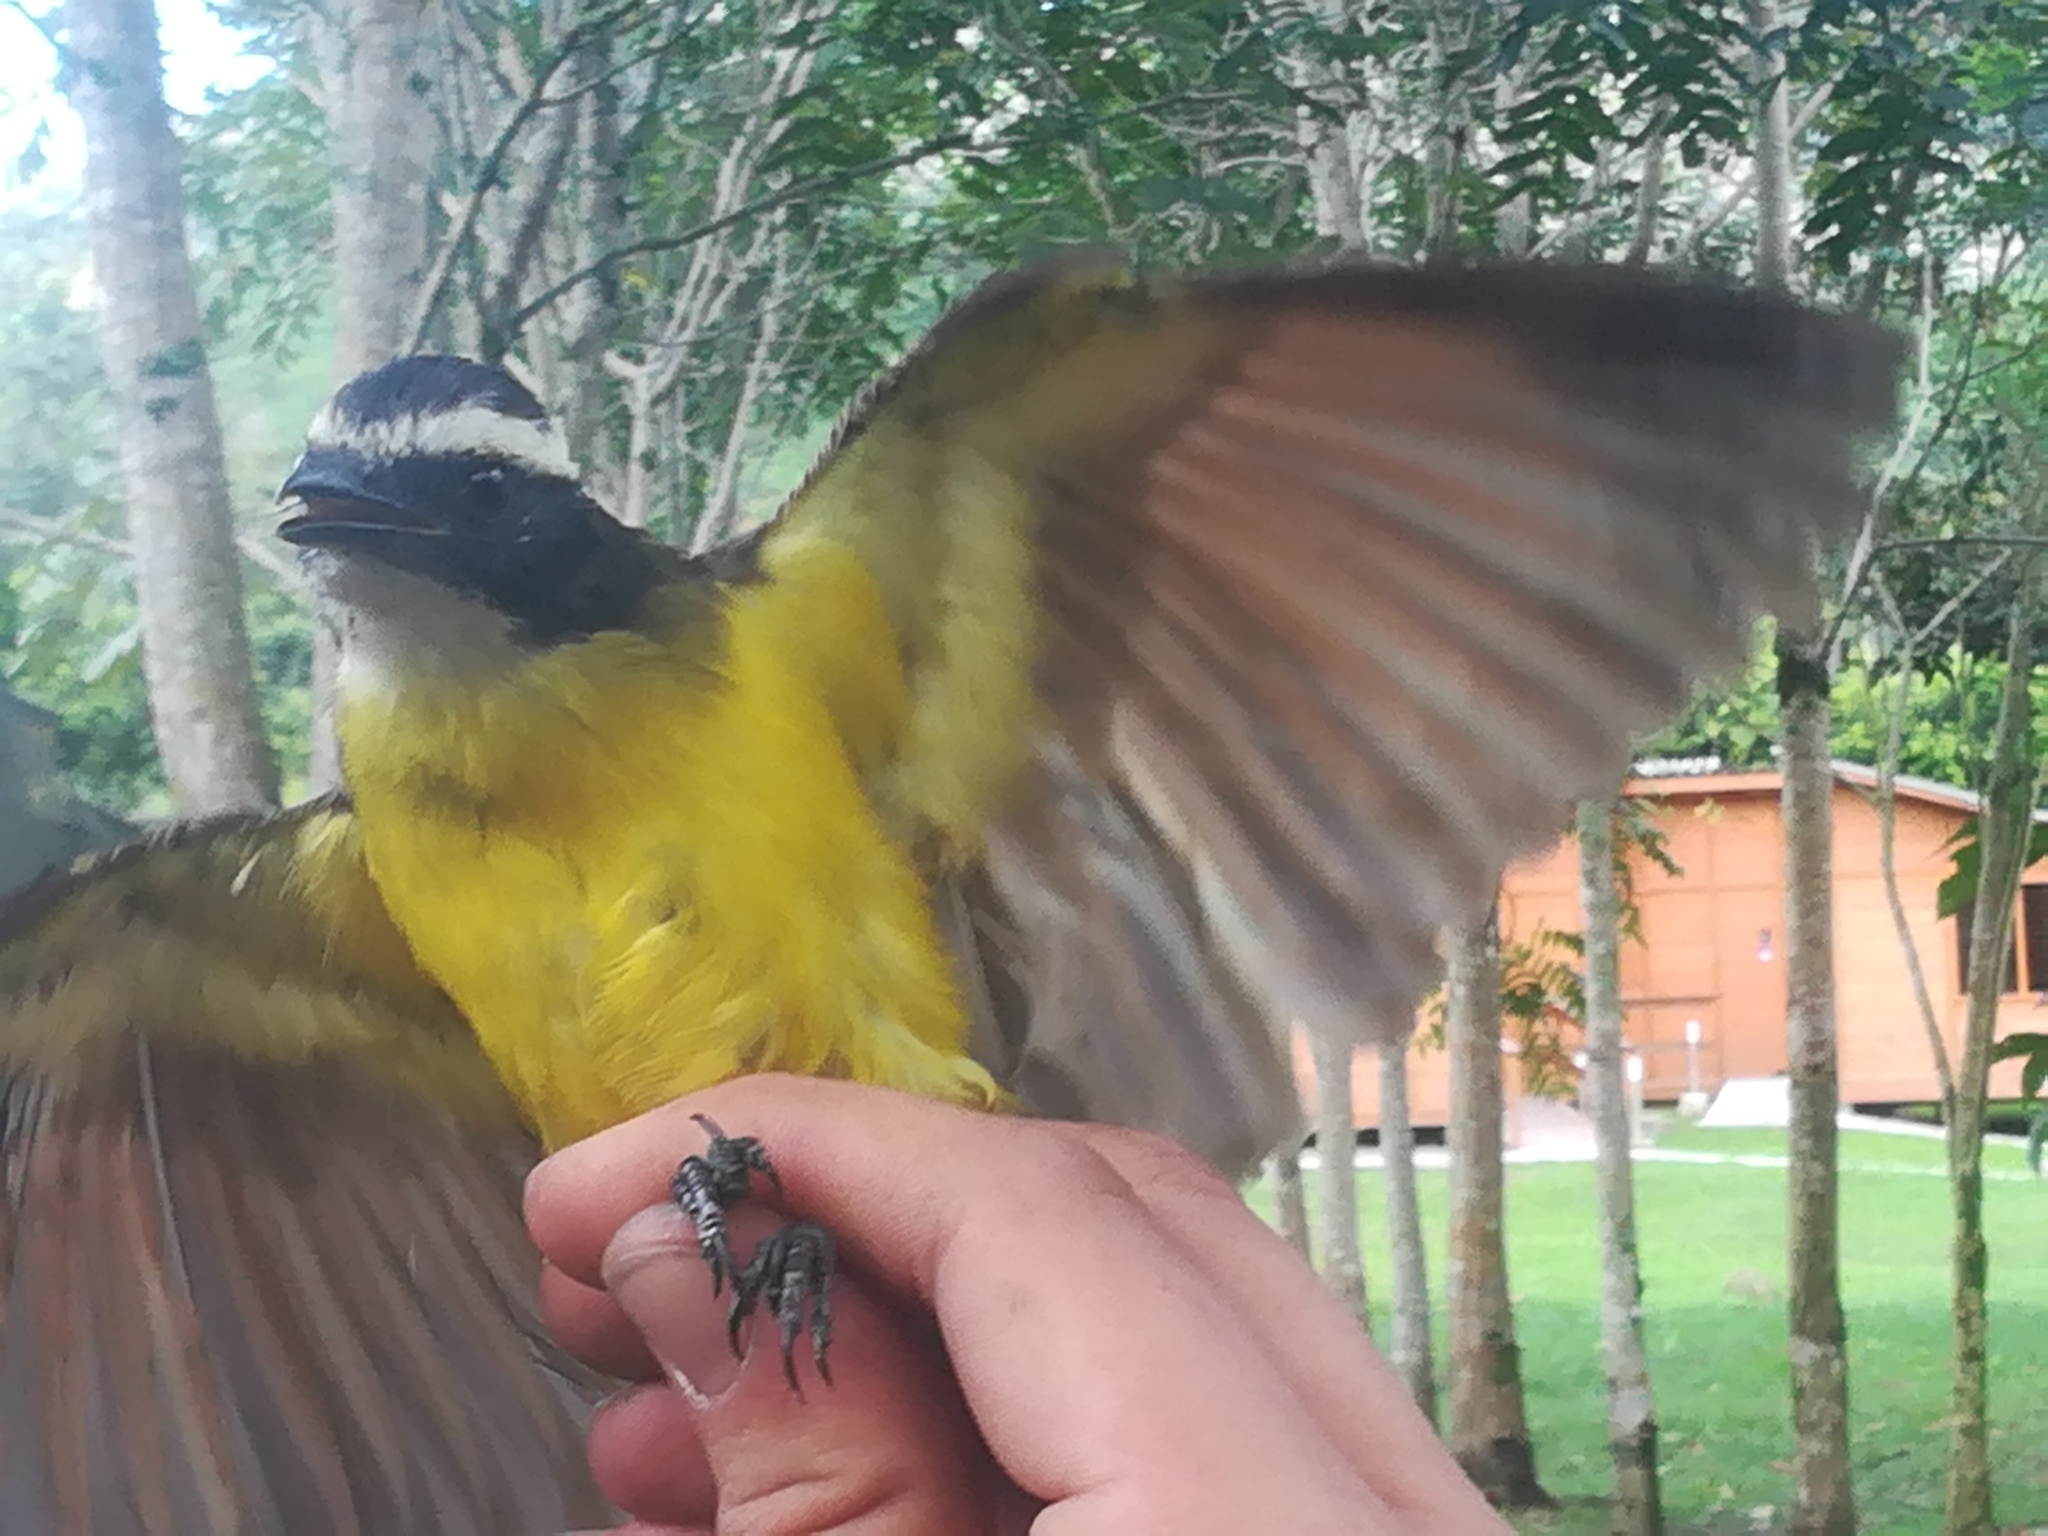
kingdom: Animalia
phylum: Chordata
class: Aves
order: Passeriformes
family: Tyrannidae
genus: Myiozetetes
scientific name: Myiozetetes cayanensis
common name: Rusty-margined flycatcher
